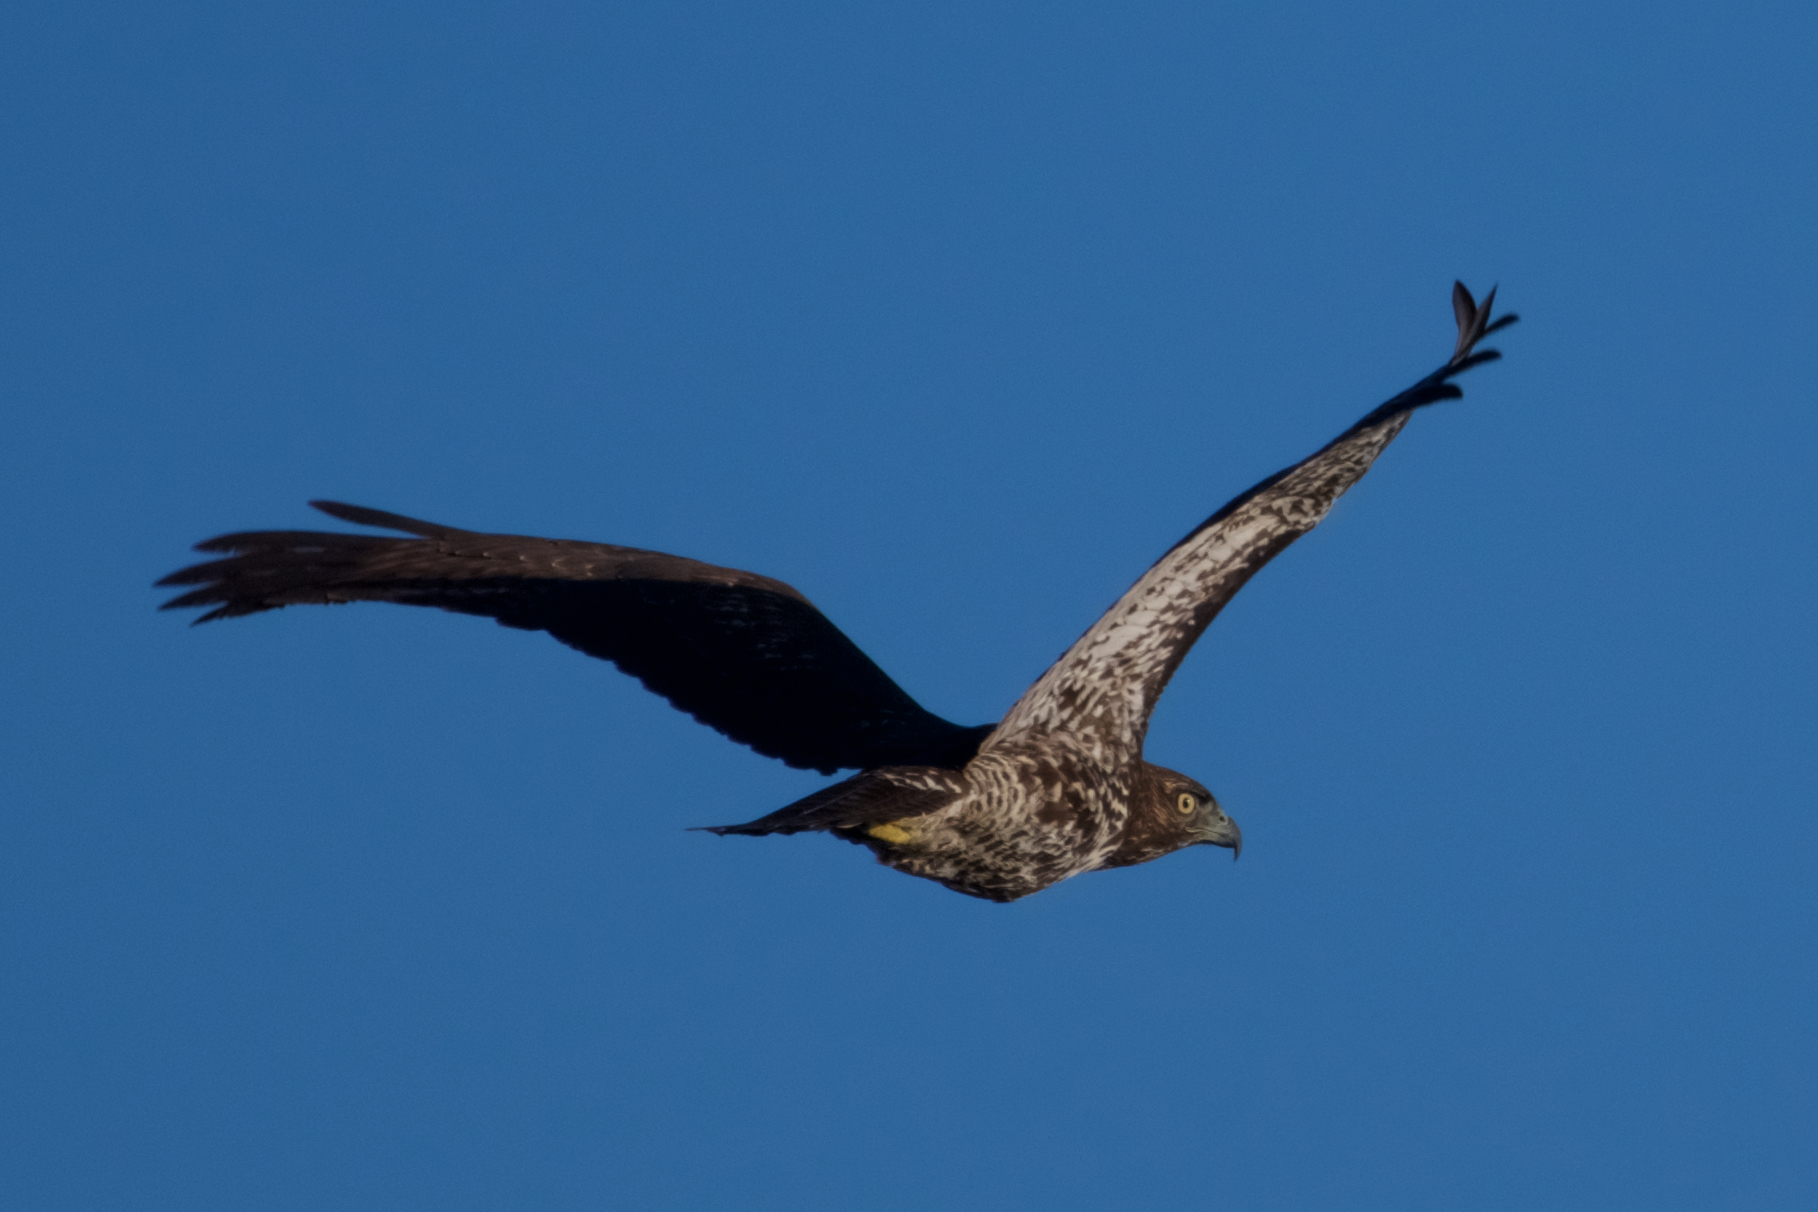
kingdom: Animalia
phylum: Chordata
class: Aves
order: Accipitriformes
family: Accipitridae
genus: Buteo
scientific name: Buteo jamaicensis
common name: Red-tailed hawk
